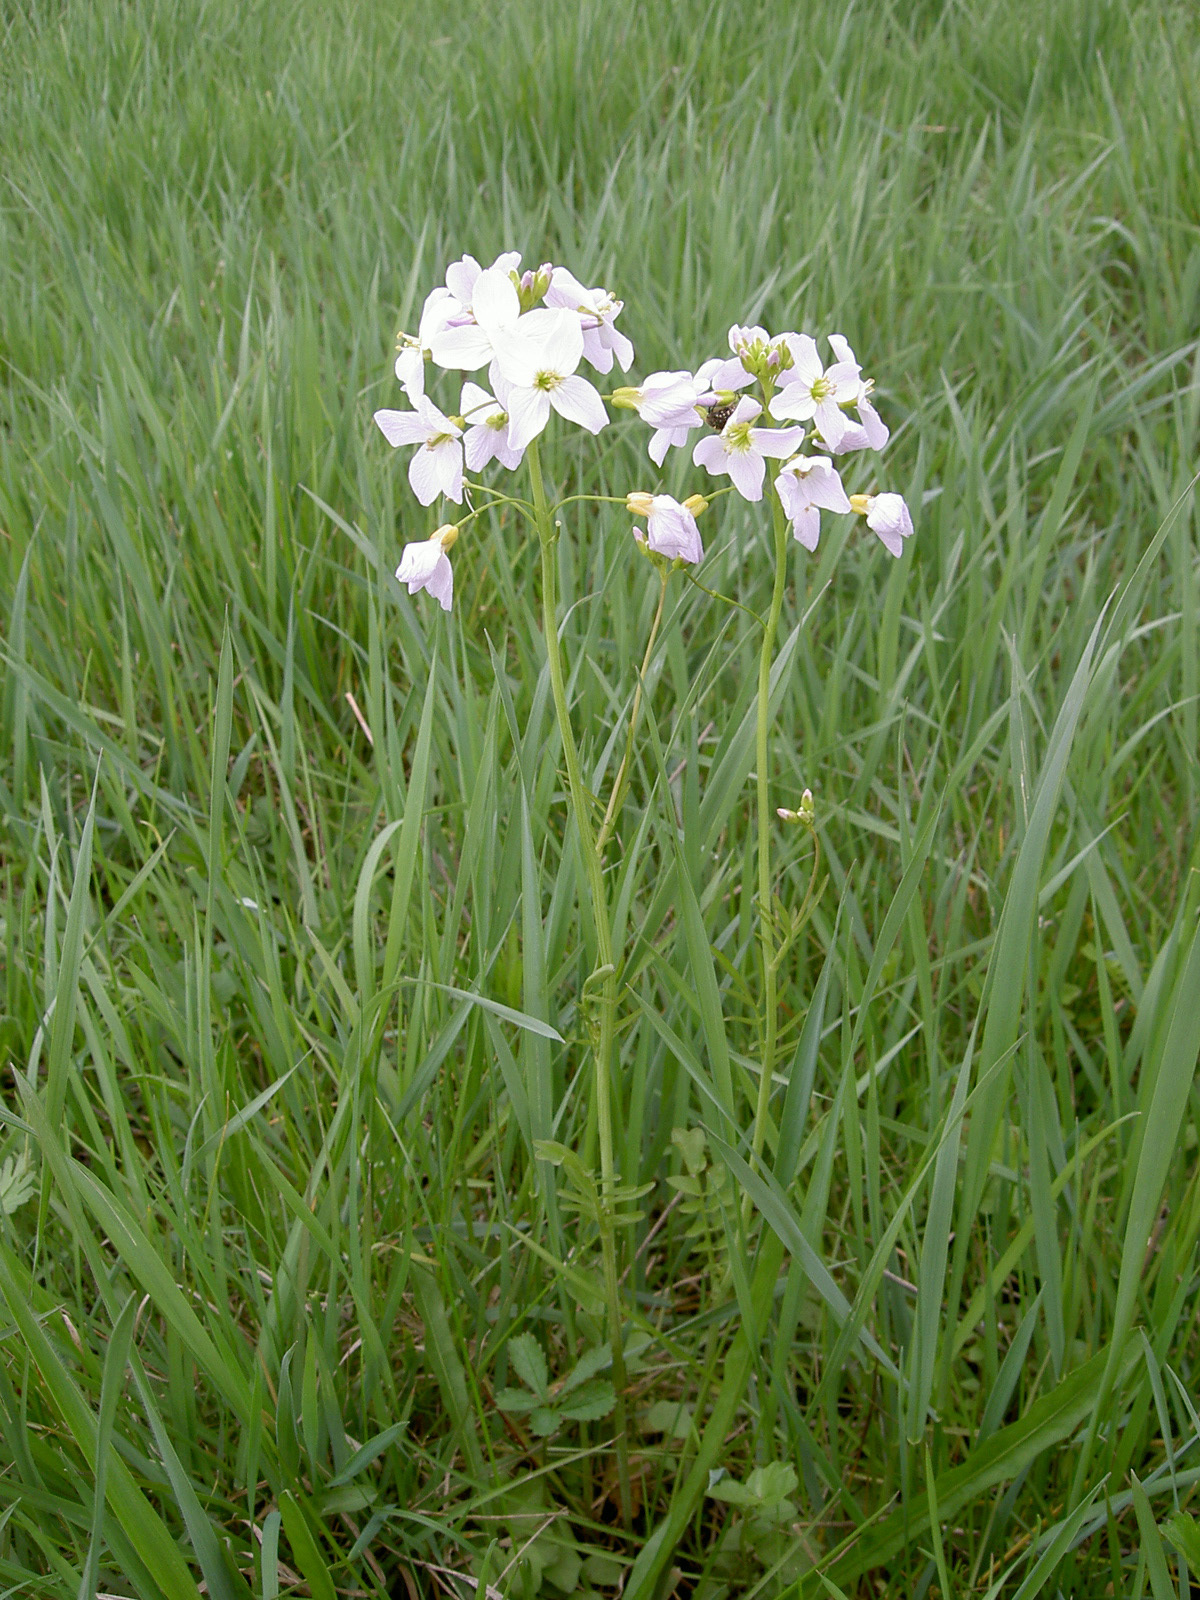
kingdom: Plantae
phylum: Tracheophyta
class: Magnoliopsida
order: Brassicales
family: Brassicaceae
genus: Cardamine
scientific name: Cardamine pratensis
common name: Cuckoo flower
